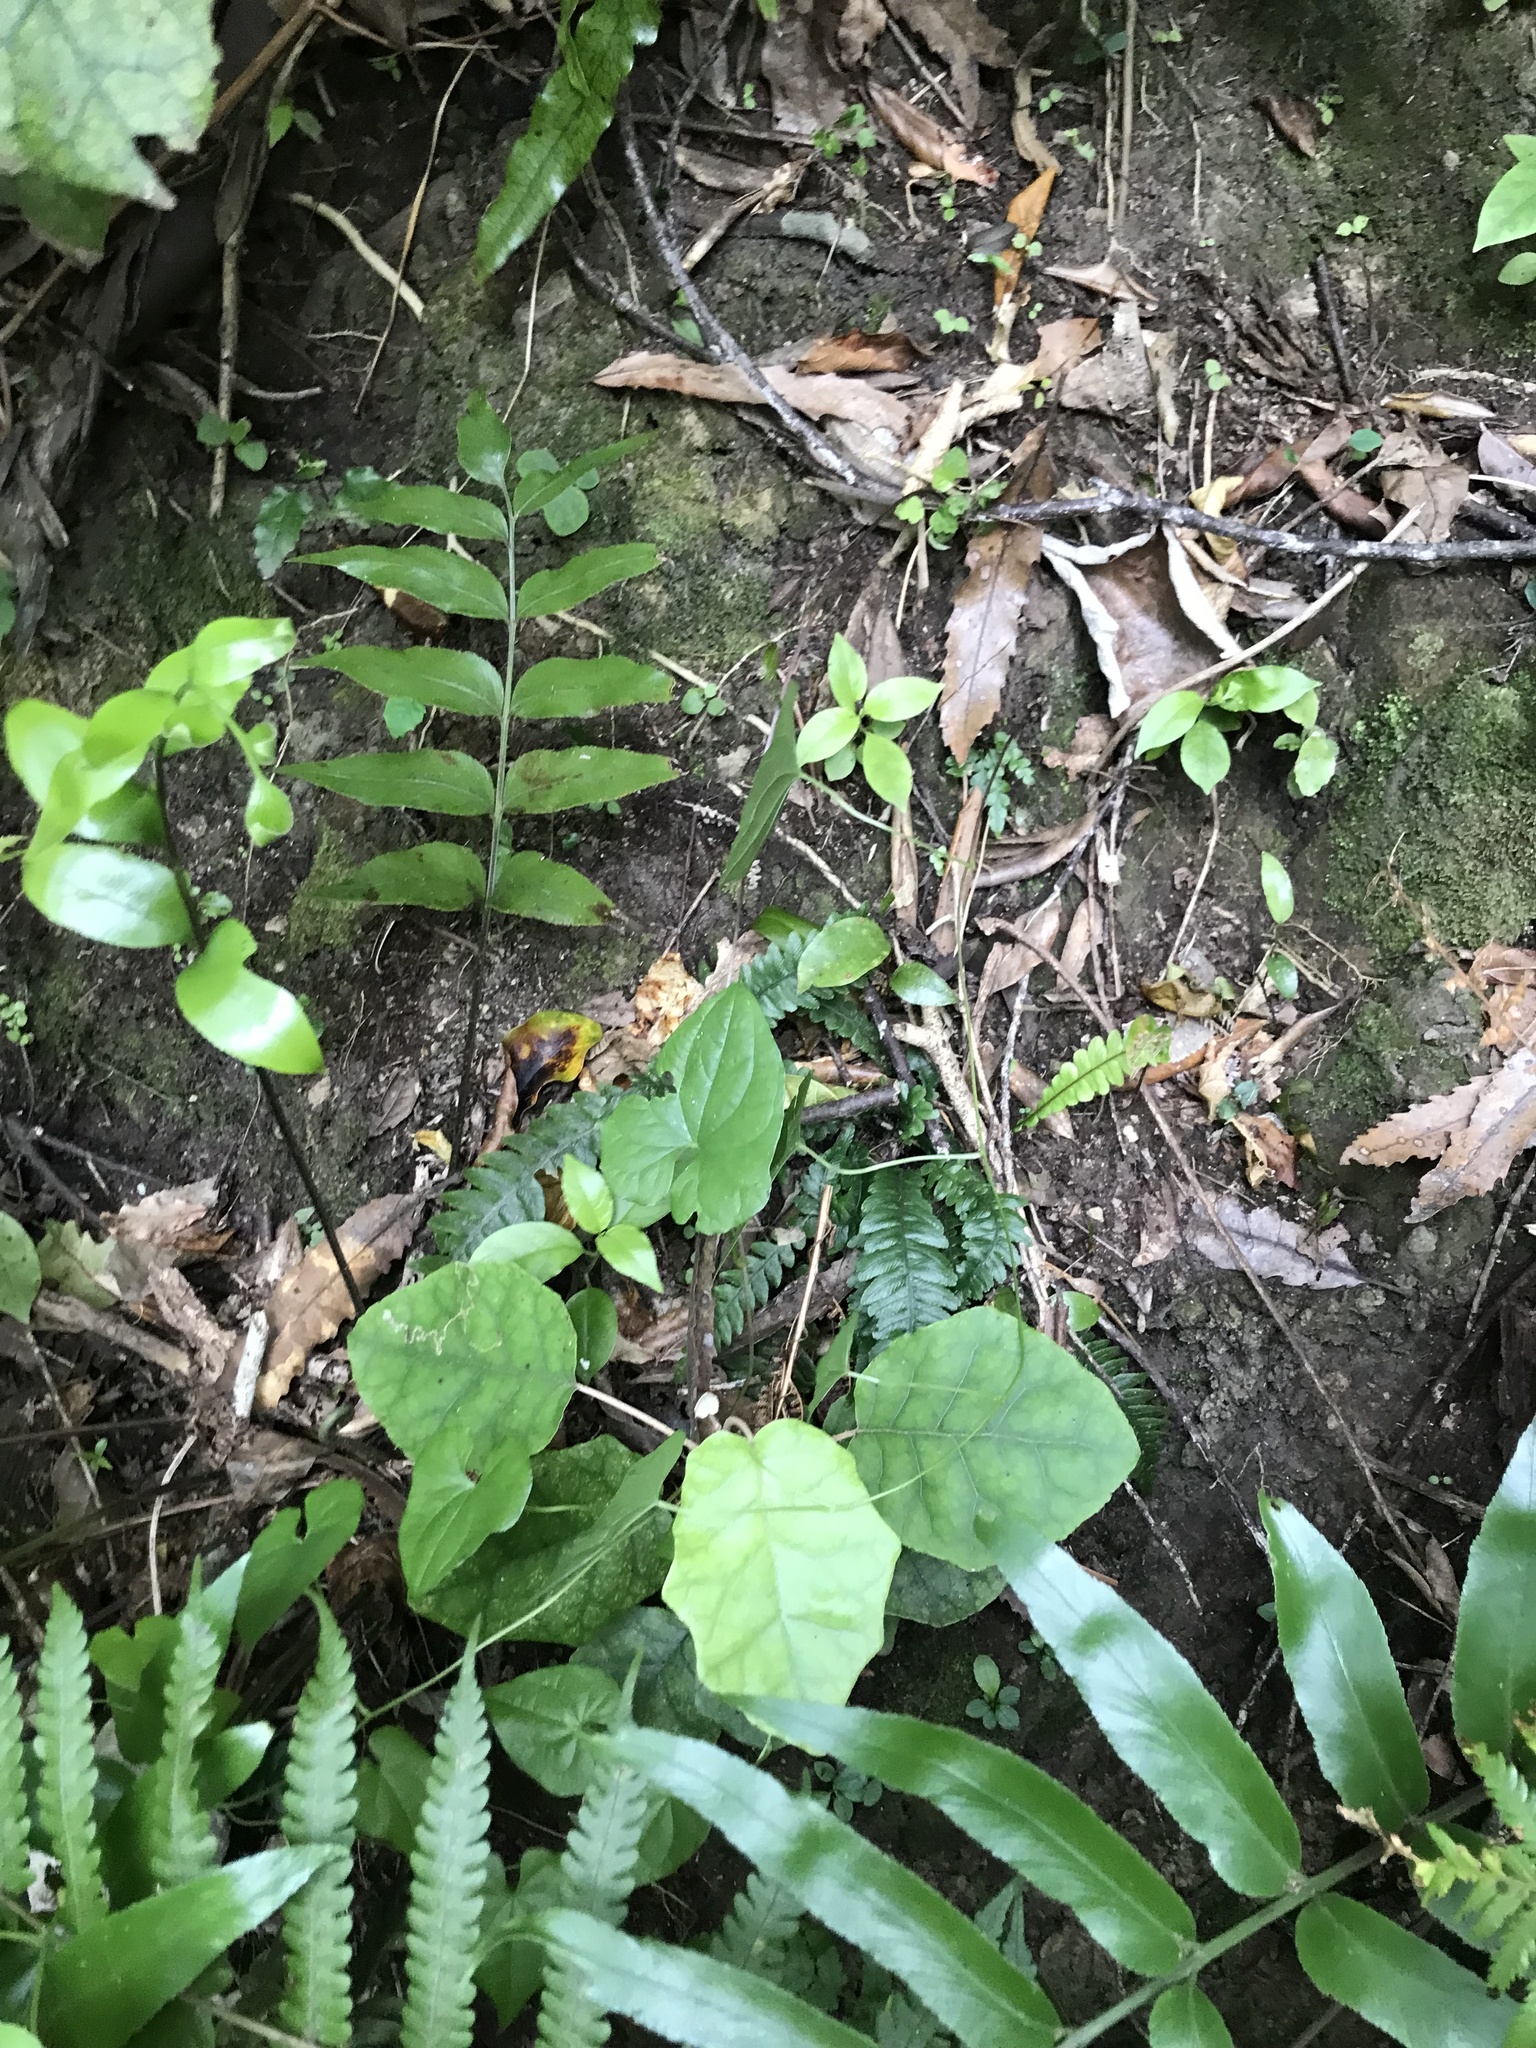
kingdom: Plantae
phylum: Tracheophyta
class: Liliopsida
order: Dioscoreales
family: Dioscoreaceae
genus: Dioscorea
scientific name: Dioscorea communis
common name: Black-bindweed
